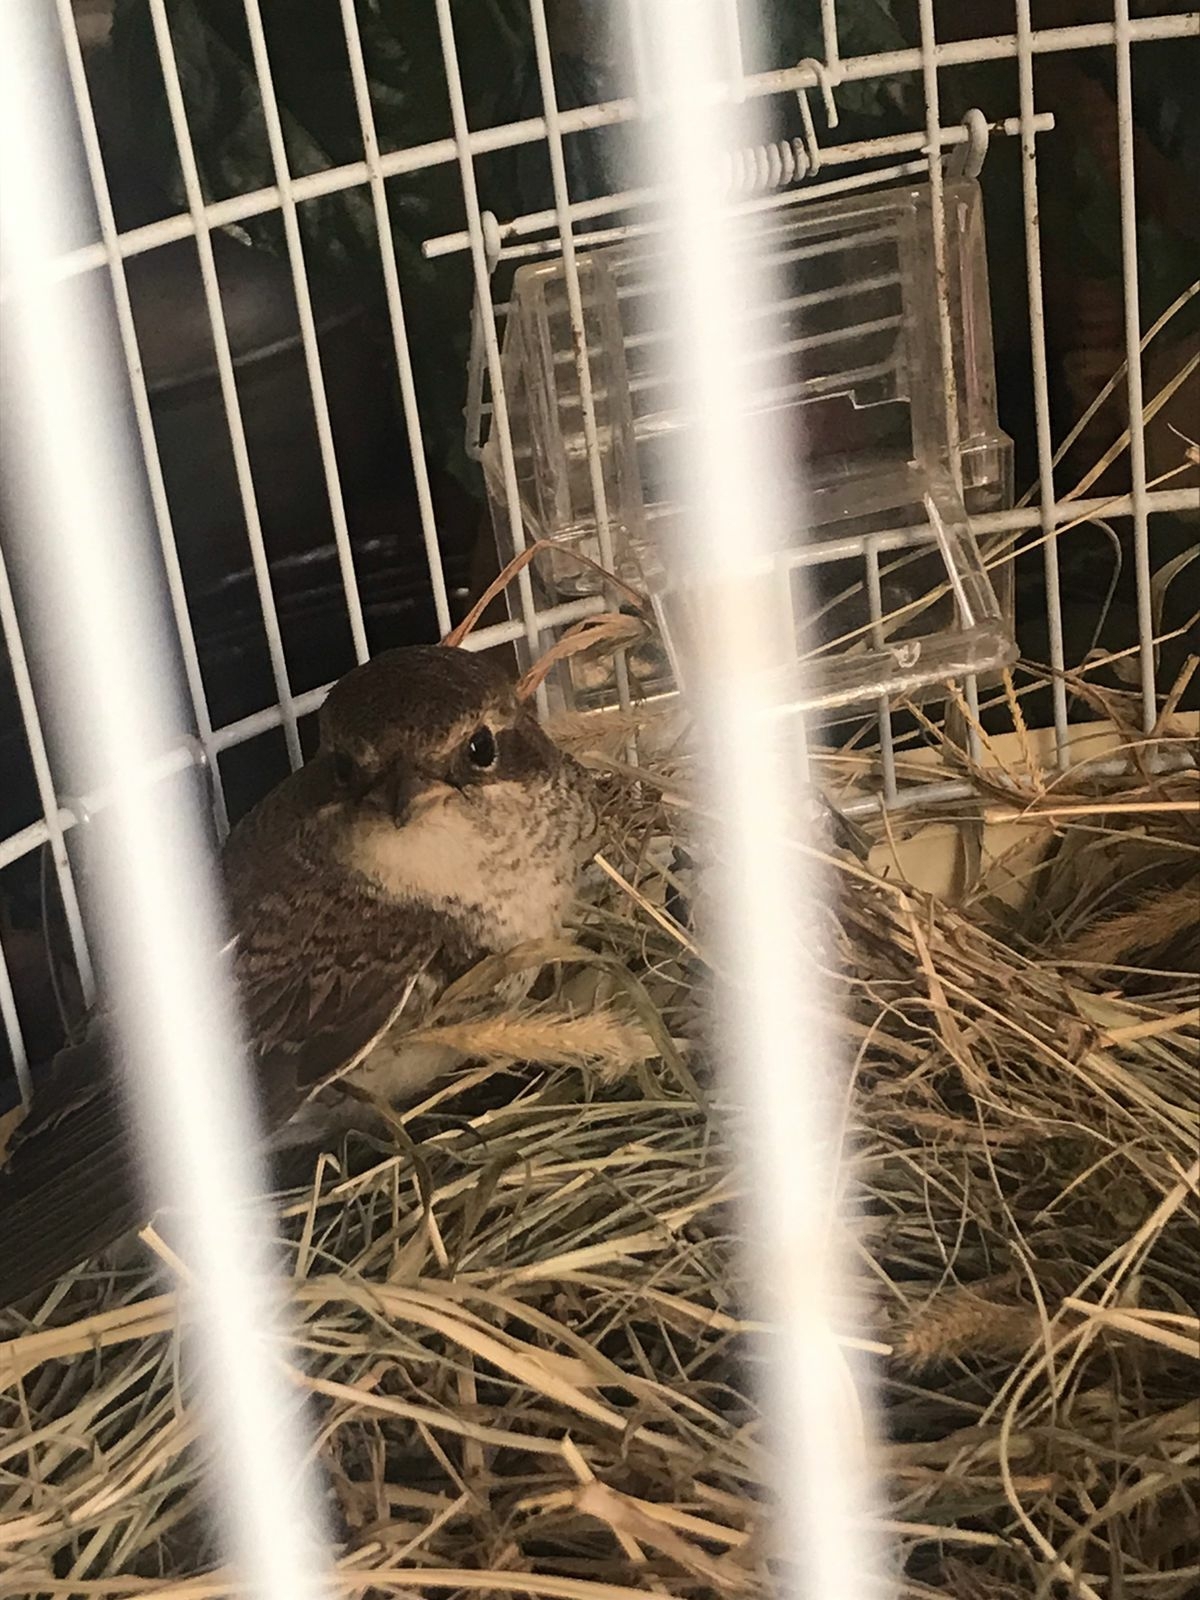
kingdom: Animalia
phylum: Chordata
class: Aves
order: Passeriformes
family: Laniidae
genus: Lanius
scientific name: Lanius collurio
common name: Red-backed shrike
